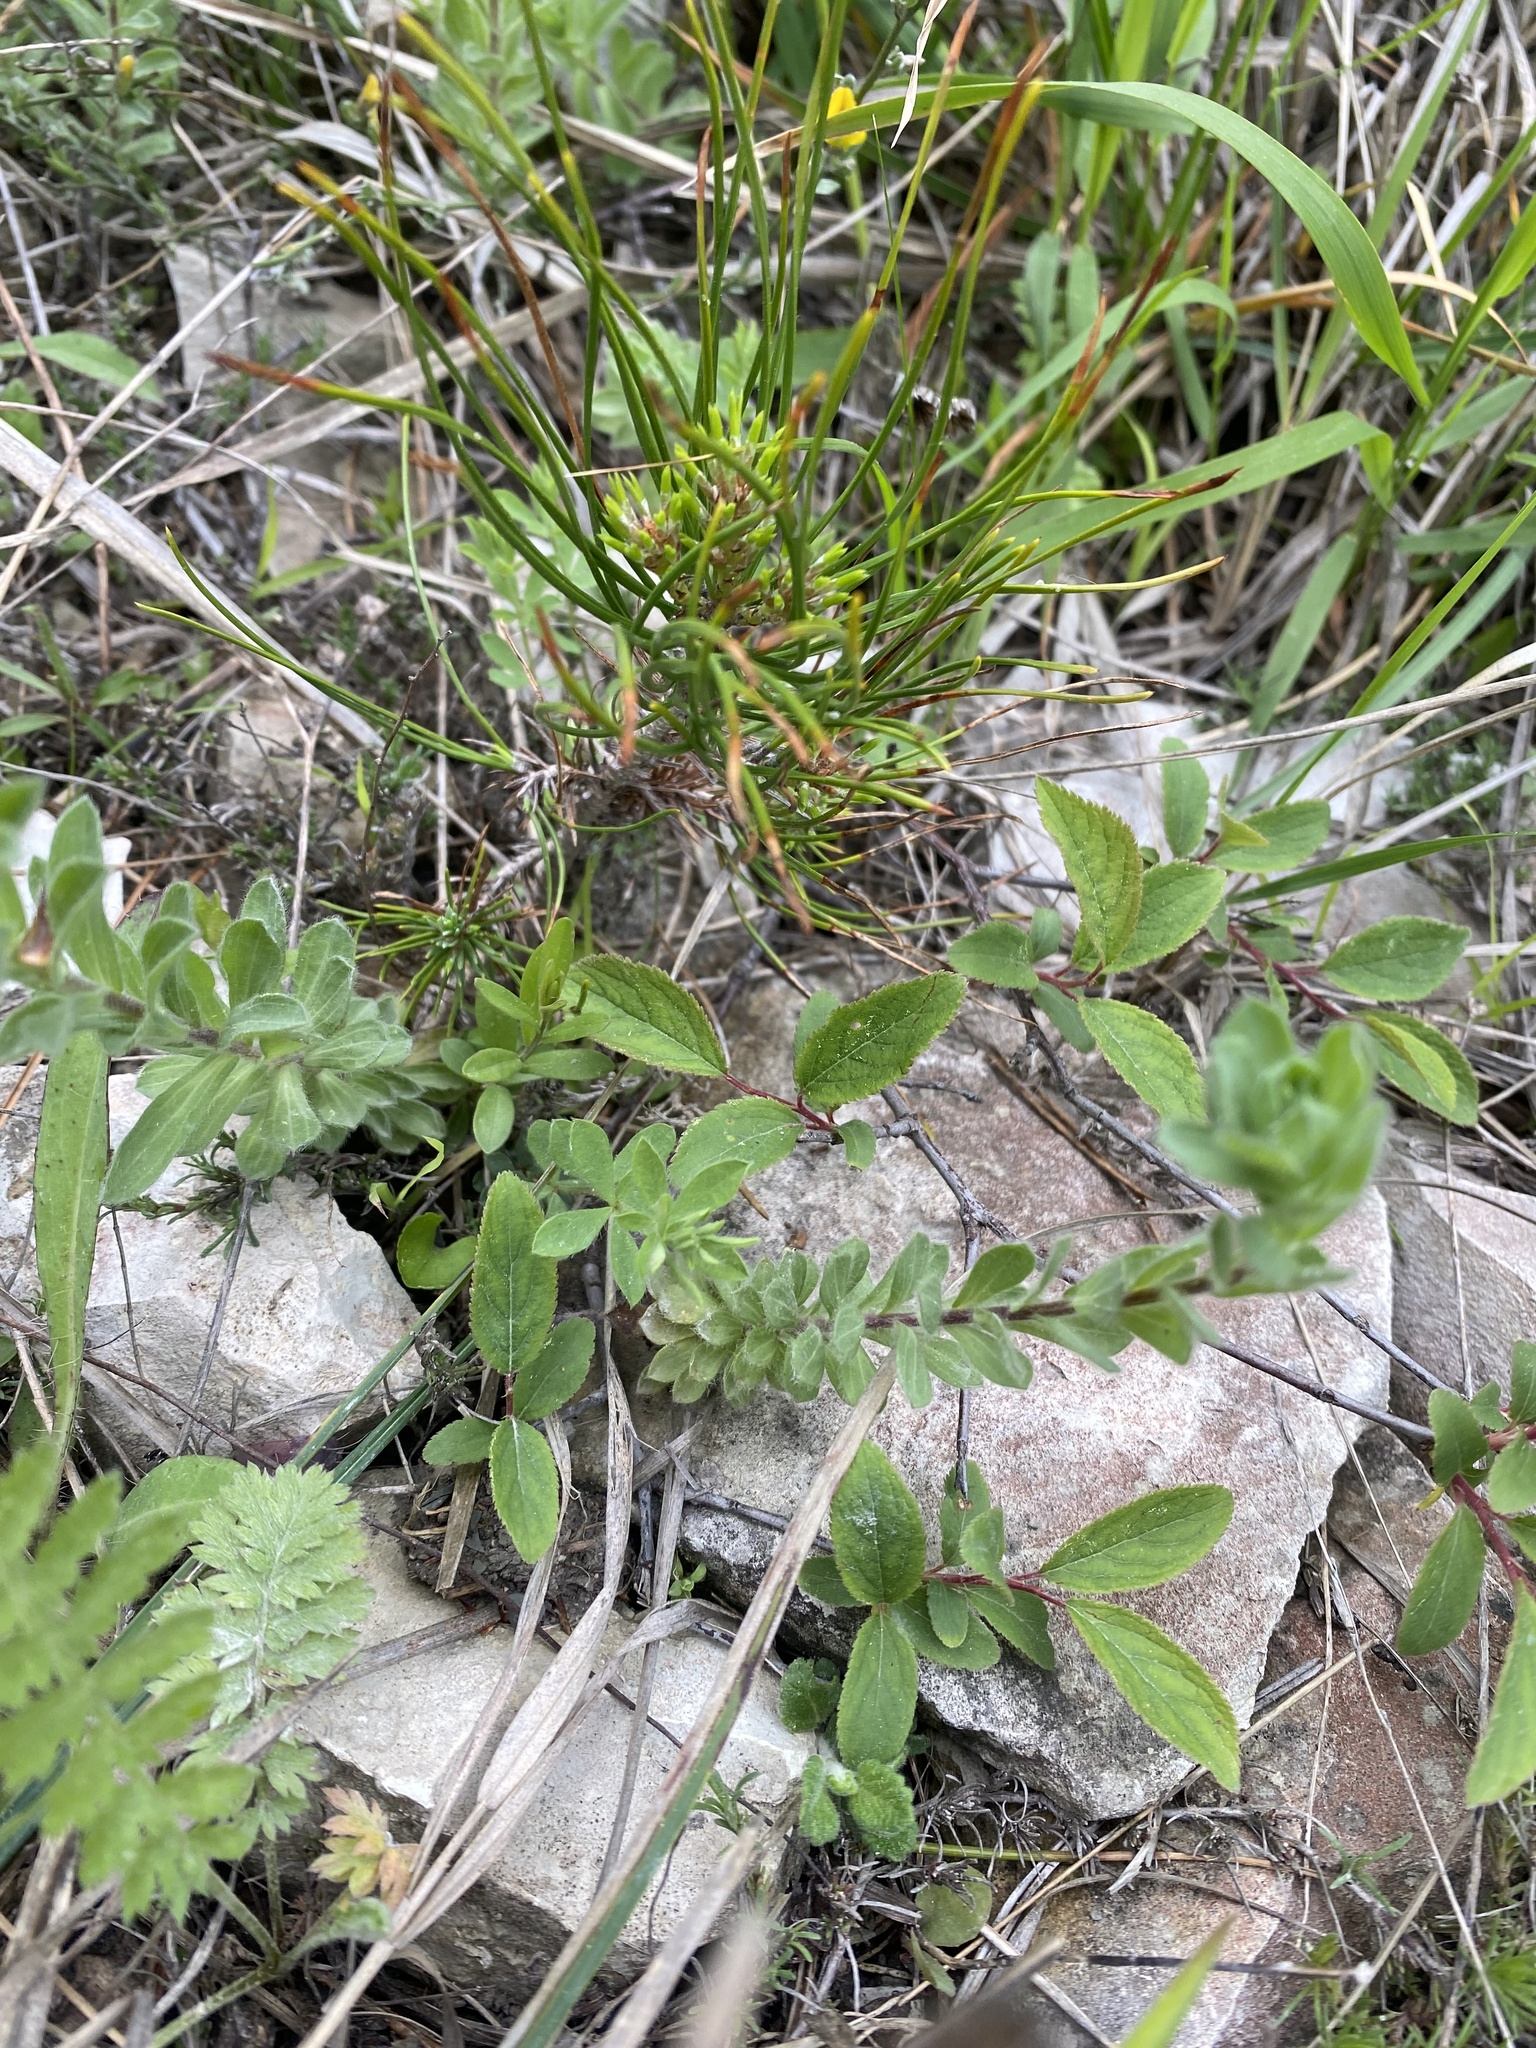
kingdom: Plantae
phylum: Tracheophyta
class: Magnoliopsida
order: Malpighiales
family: Linaceae
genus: Linum
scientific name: Linum hirsutum
